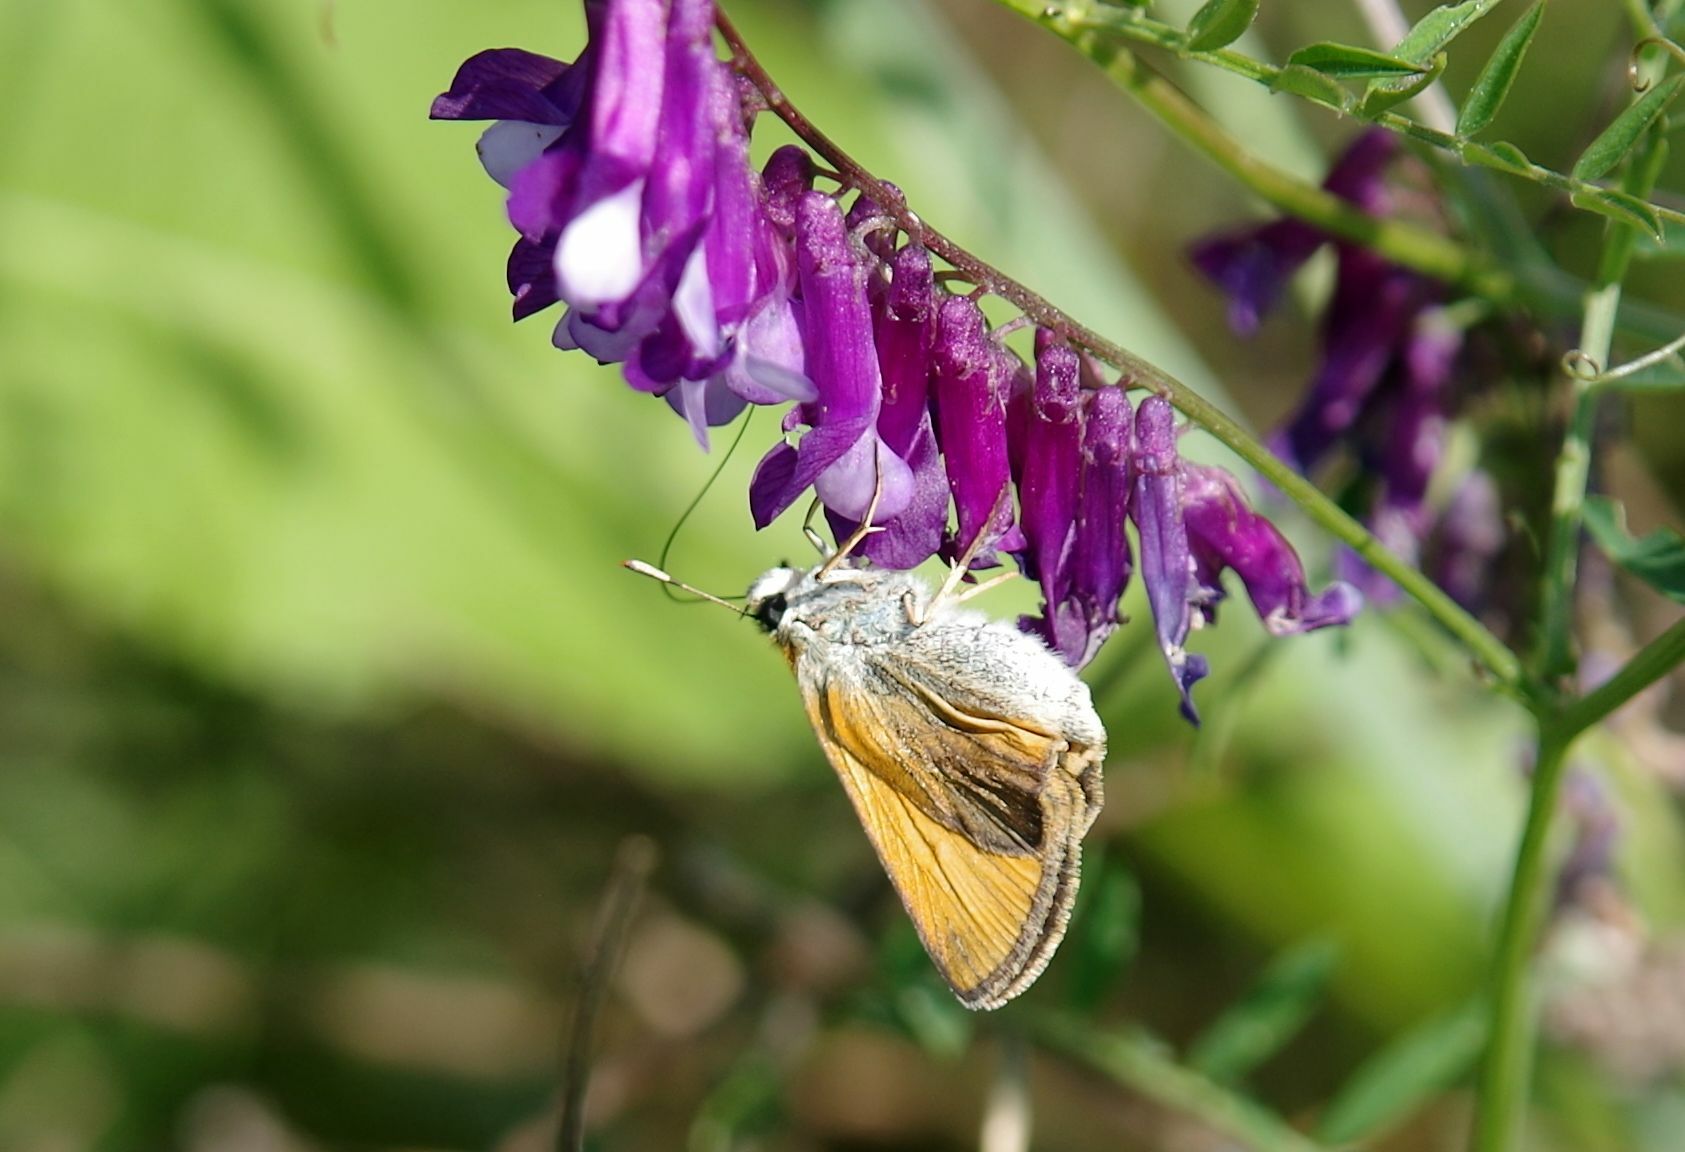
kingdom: Animalia
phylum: Arthropoda
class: Insecta
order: Lepidoptera
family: Hesperiidae
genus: Thymelicus
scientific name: Thymelicus sylvestris
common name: Small skipper
